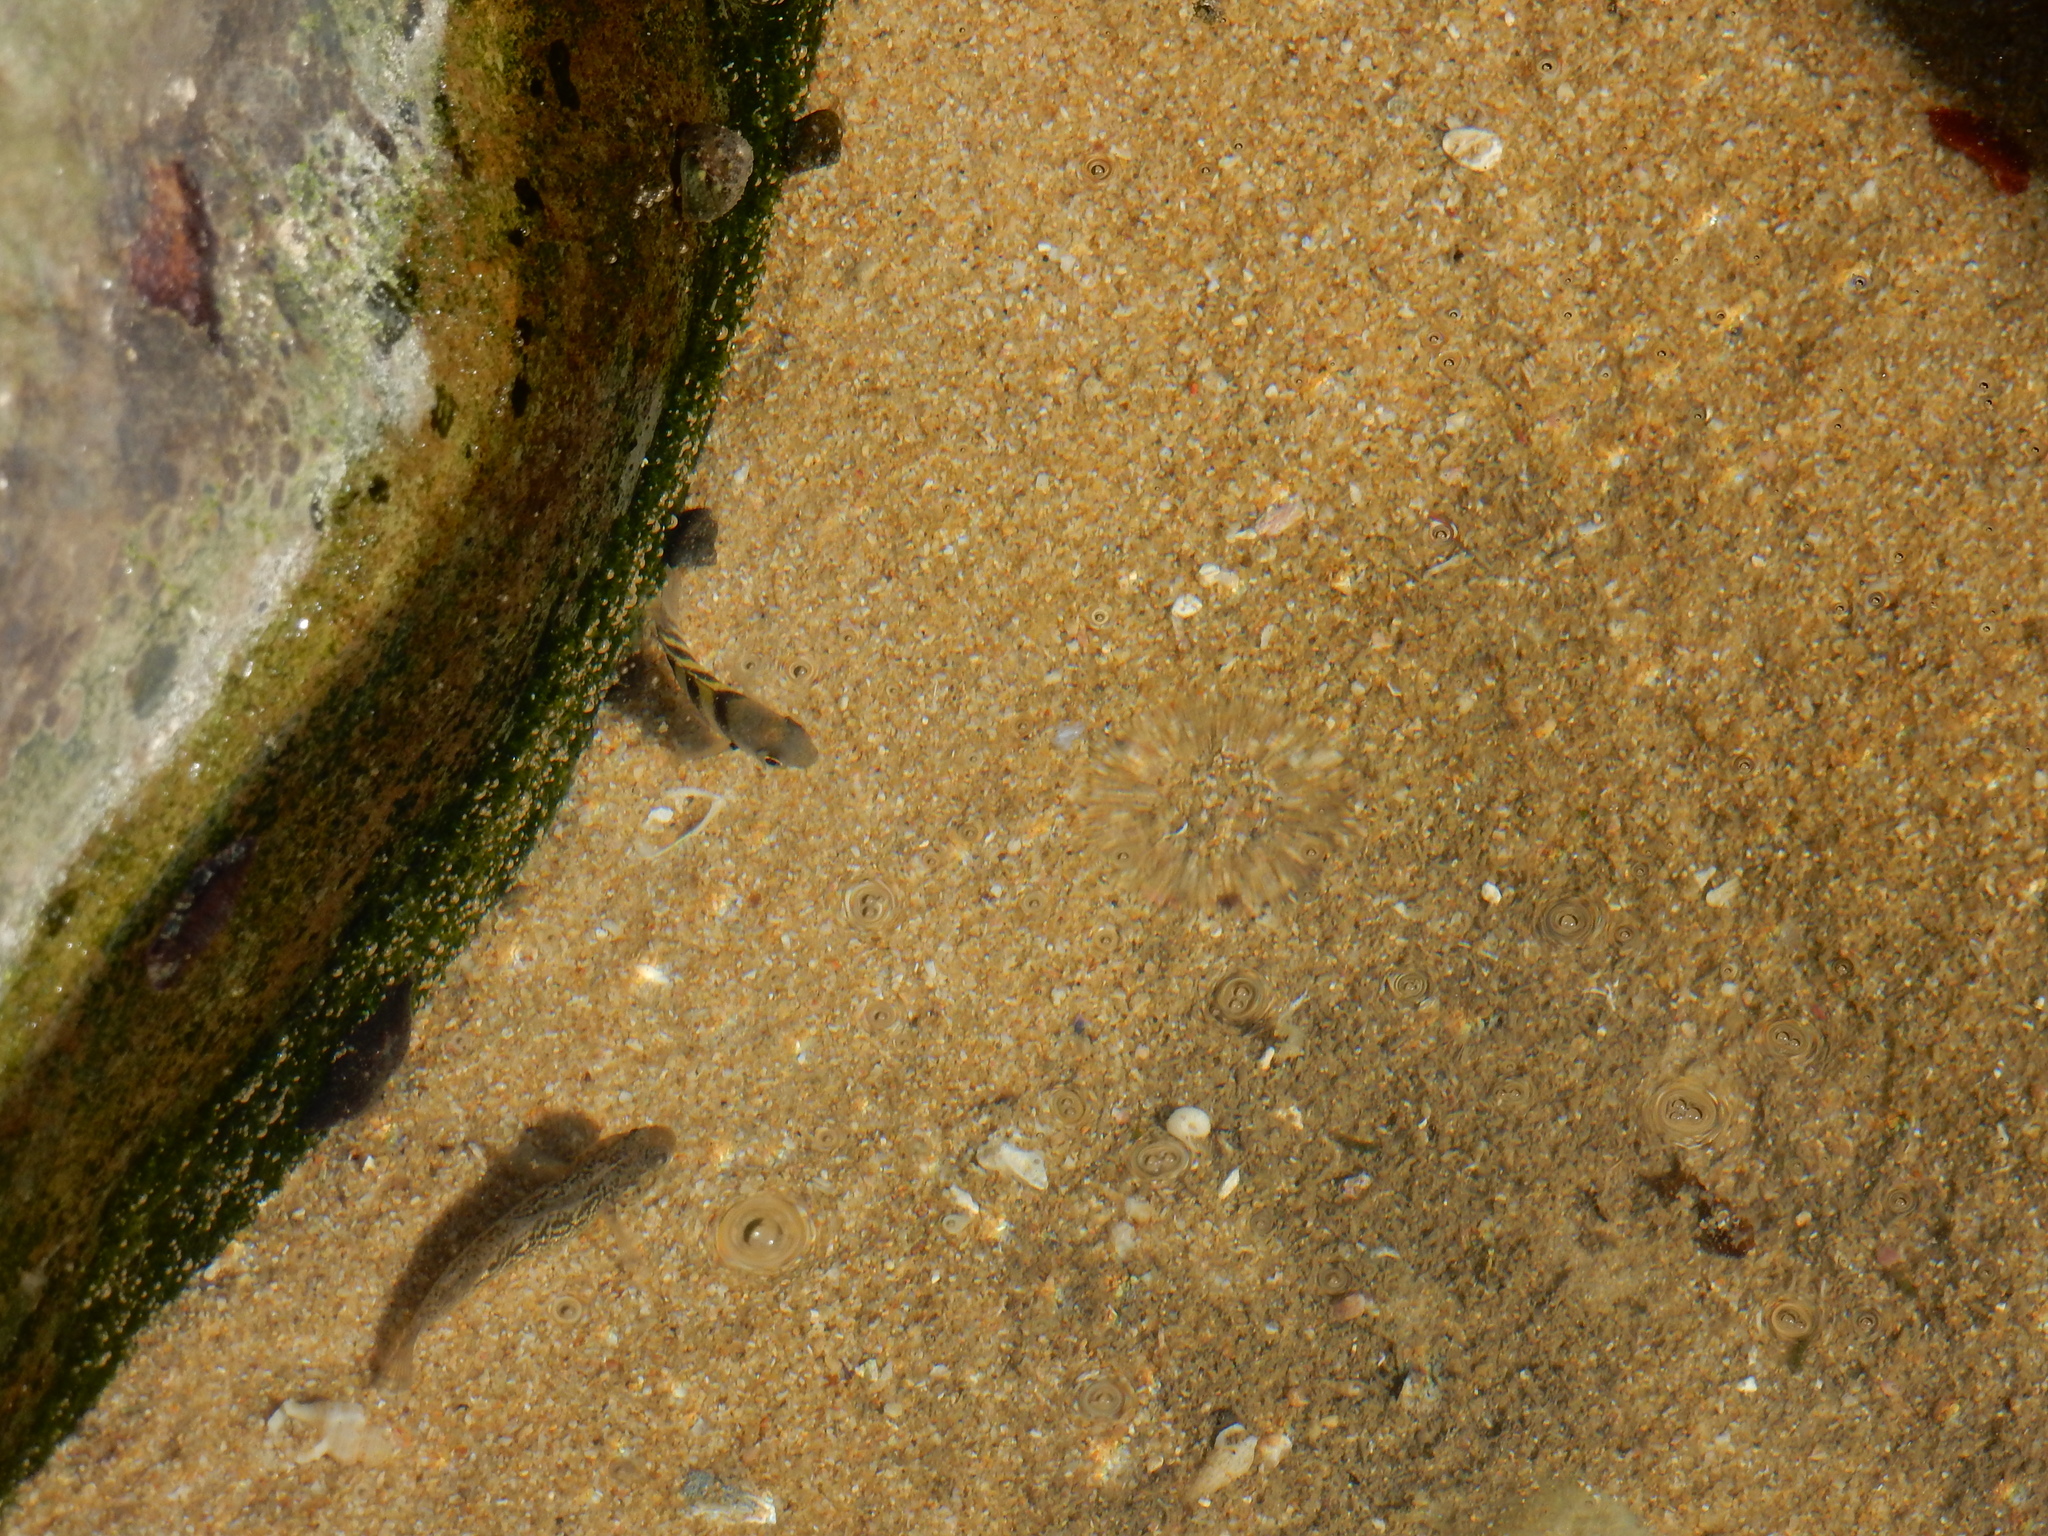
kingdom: Animalia
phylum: Chordata
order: Perciformes
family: Pomacentridae
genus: Abudefduf
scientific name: Abudefduf vaigiensis
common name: Indo-pacific sergeant
